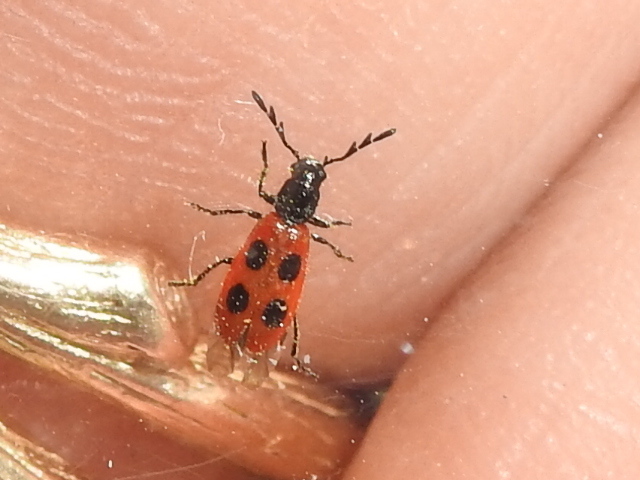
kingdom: Animalia
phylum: Arthropoda
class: Insecta
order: Coleoptera
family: Cleridae
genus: Pelonides
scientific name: Pelonides quadripunctatus
